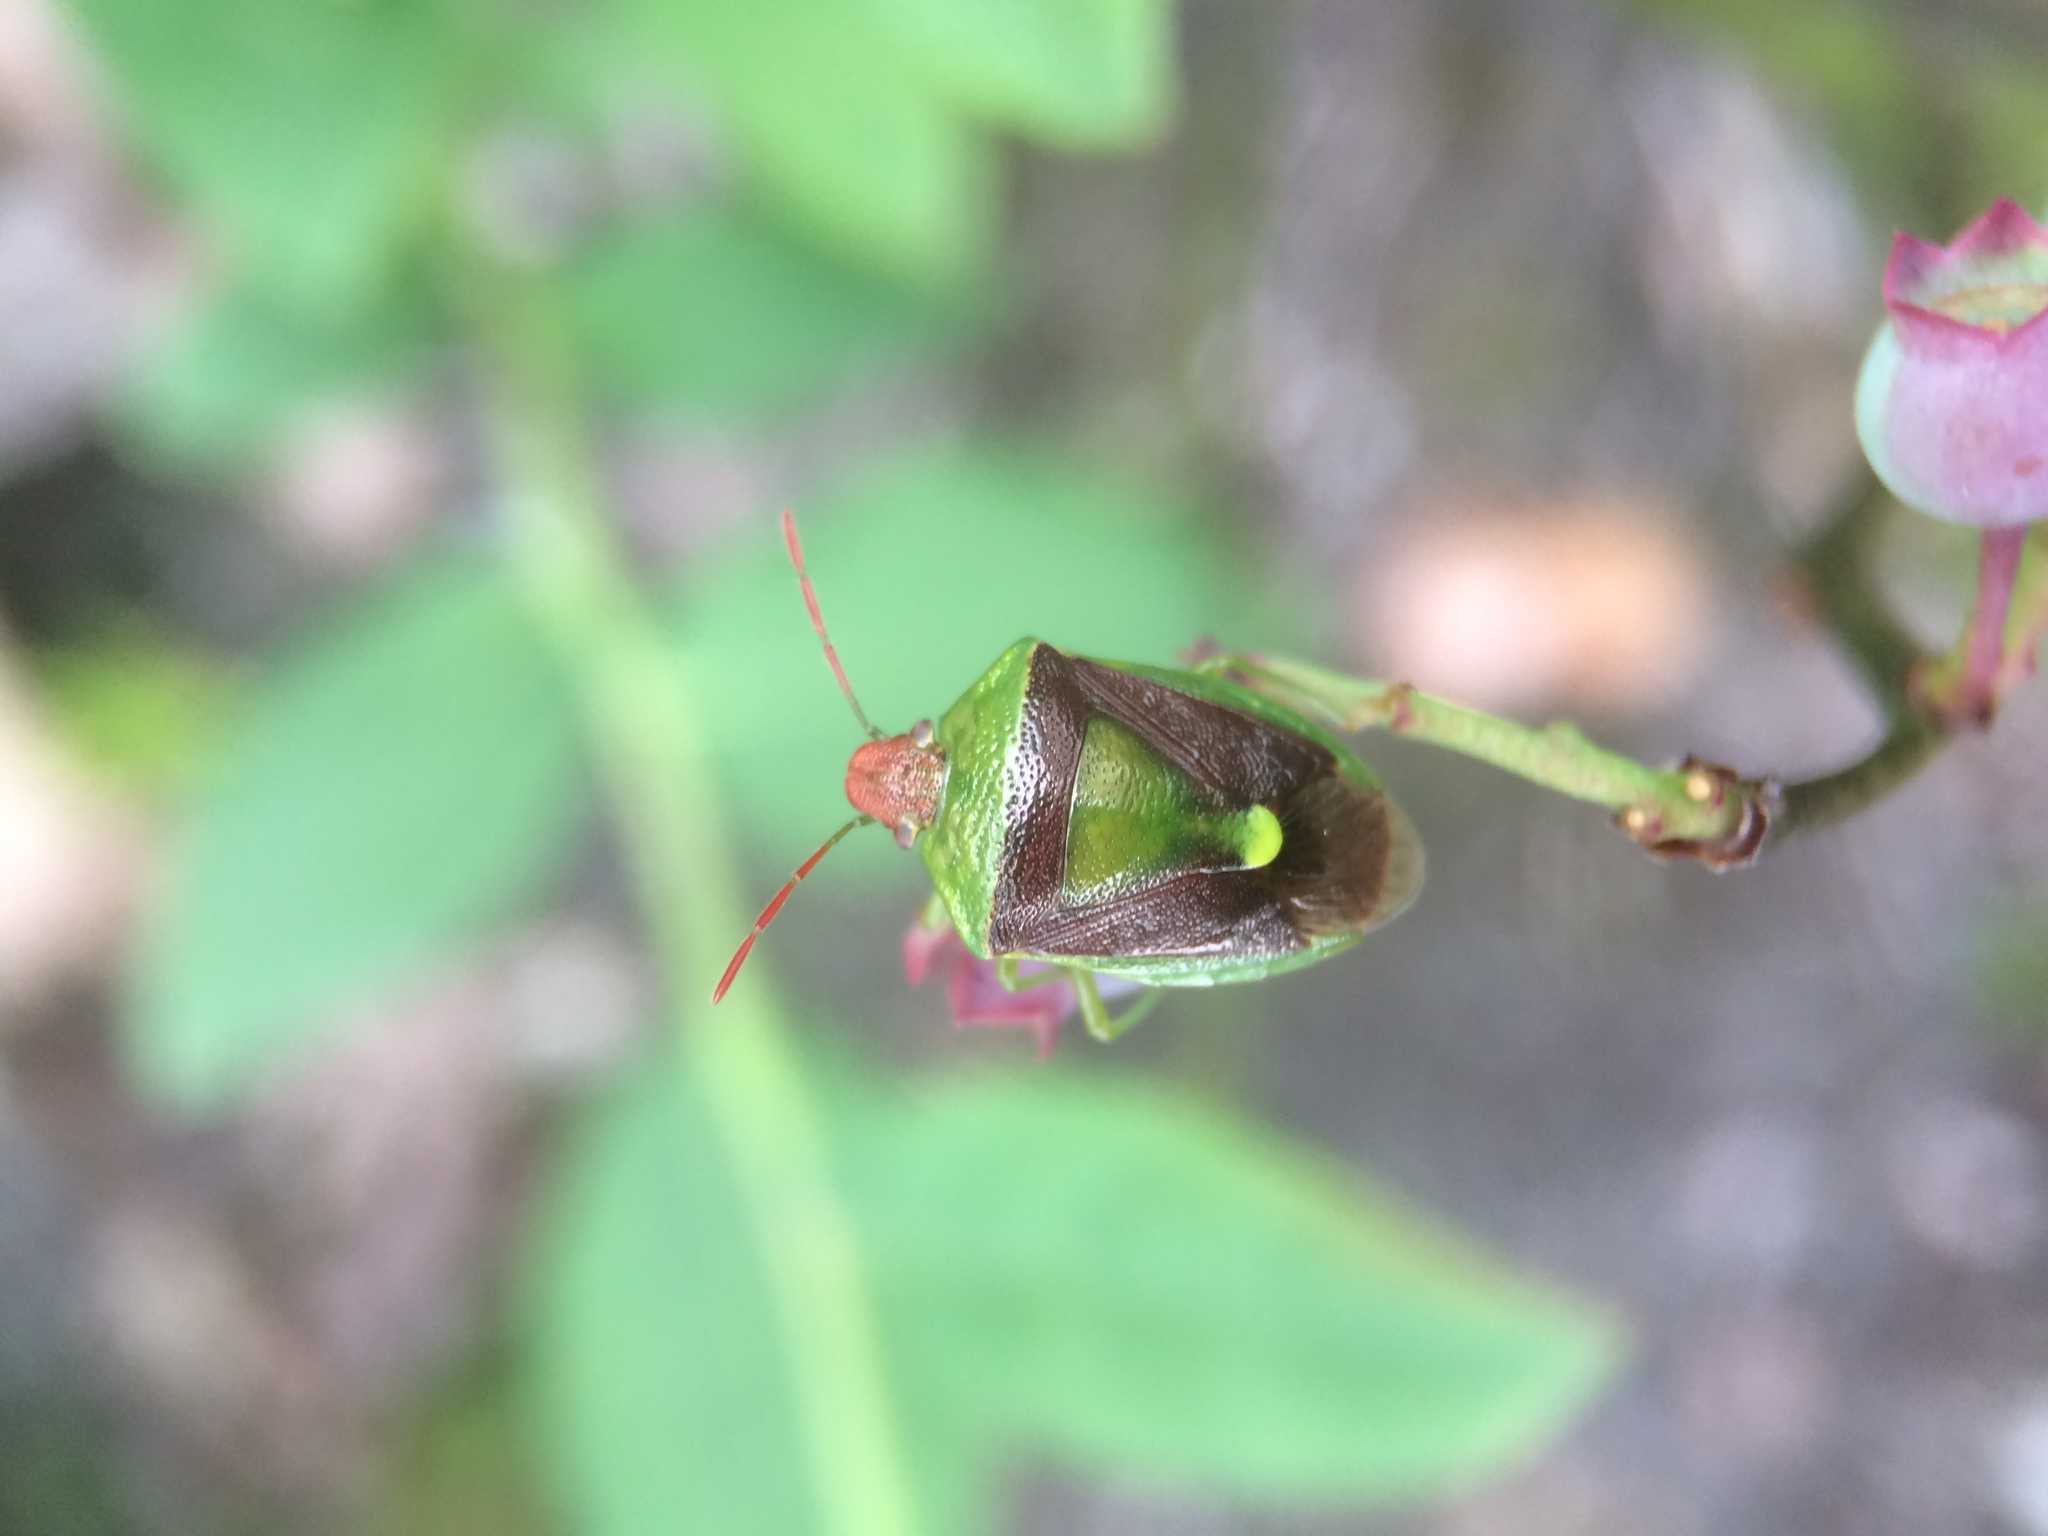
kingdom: Animalia
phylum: Arthropoda
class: Insecta
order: Hemiptera
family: Pentatomidae
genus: Banasa
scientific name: Banasa dimidiata
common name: Green burgundy stink bug
